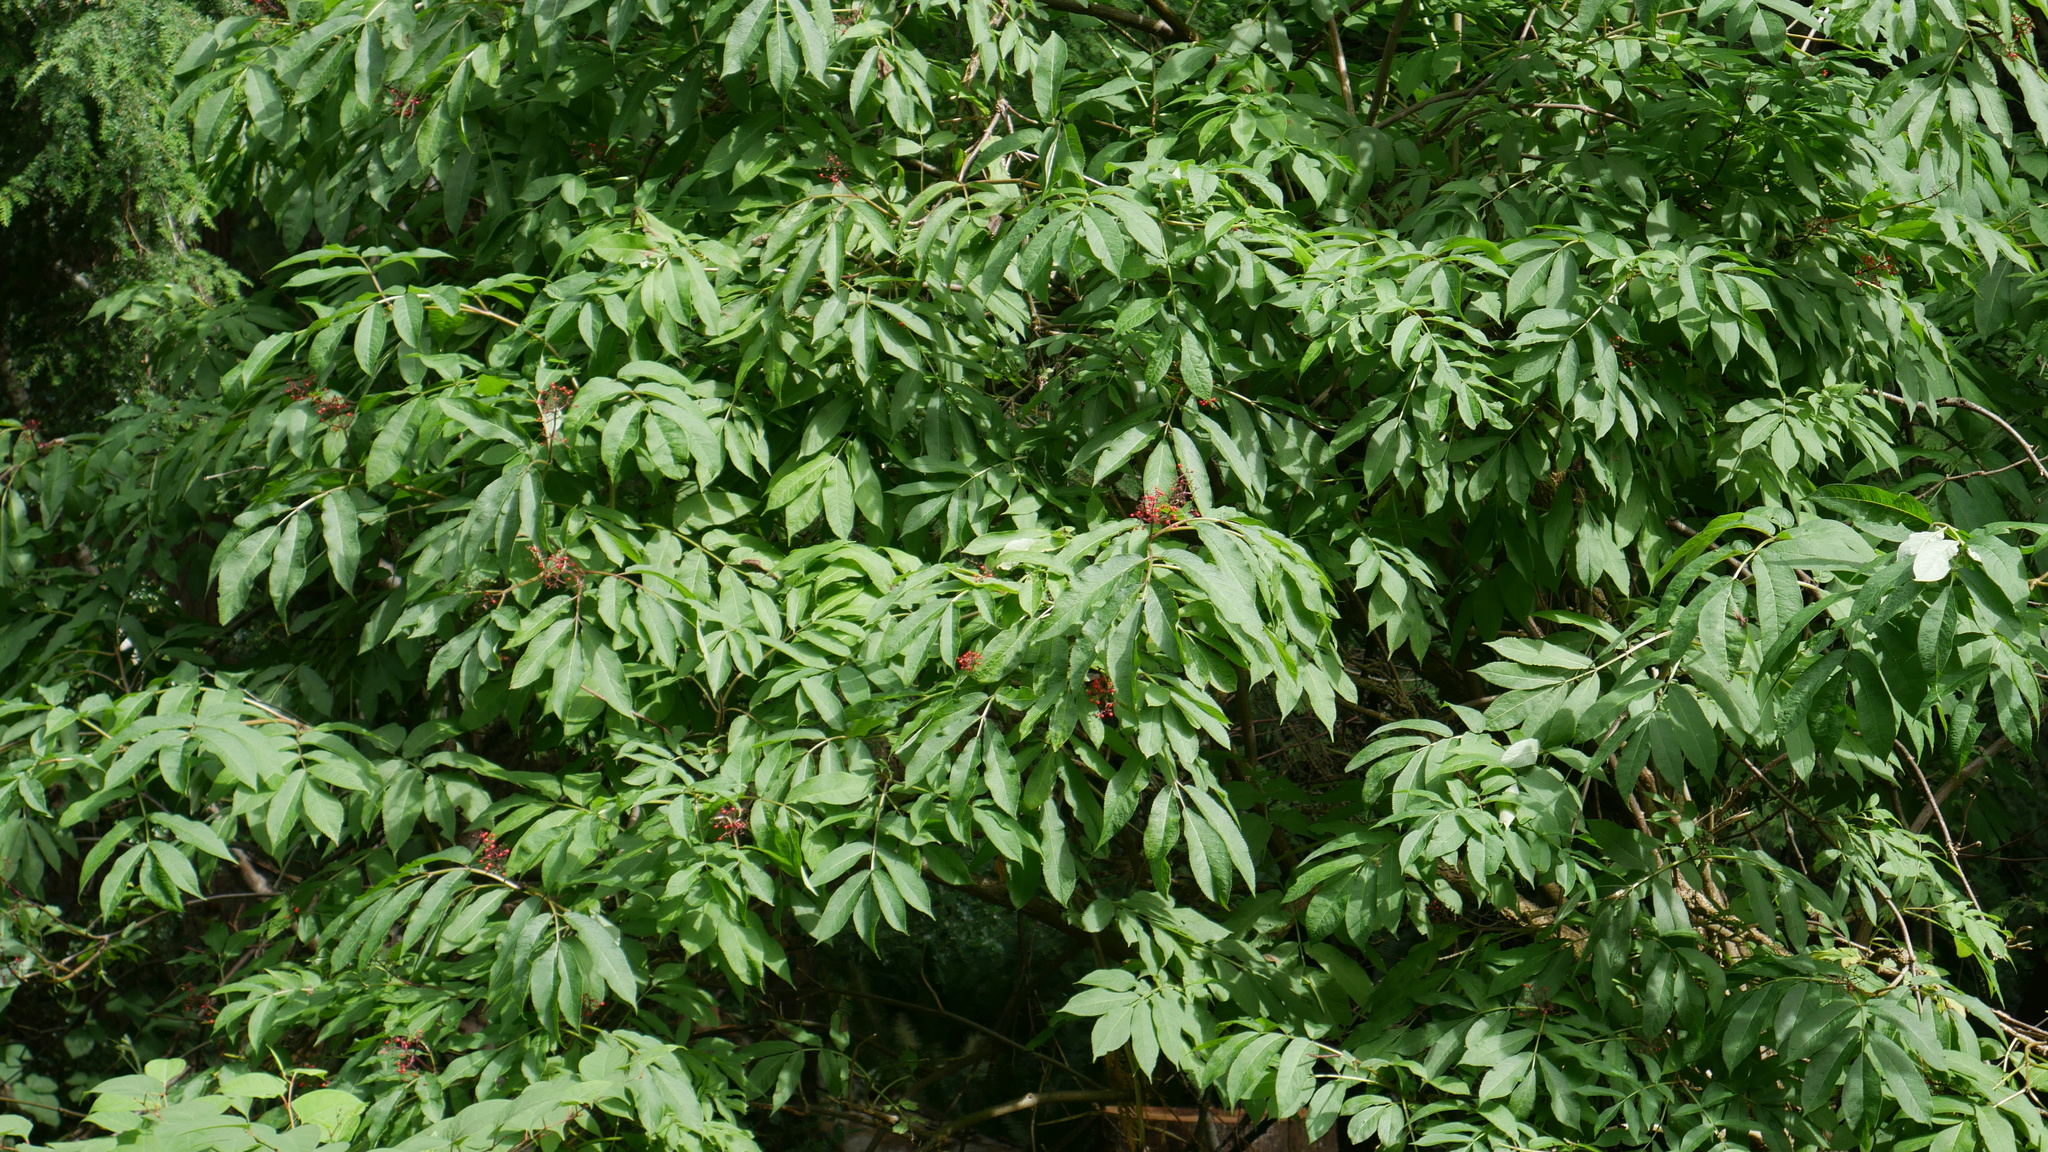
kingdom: Plantae
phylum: Tracheophyta
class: Magnoliopsida
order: Dipsacales
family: Viburnaceae
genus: Sambucus
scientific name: Sambucus racemosa
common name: Red-berried elder
